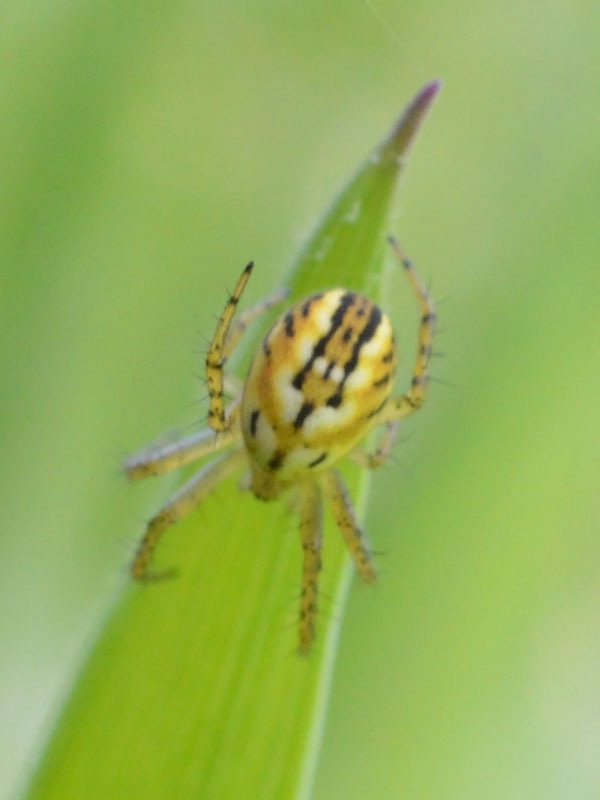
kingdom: Animalia
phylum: Arthropoda
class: Arachnida
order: Araneae
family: Araneidae
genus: Mangora
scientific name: Mangora acalypha
